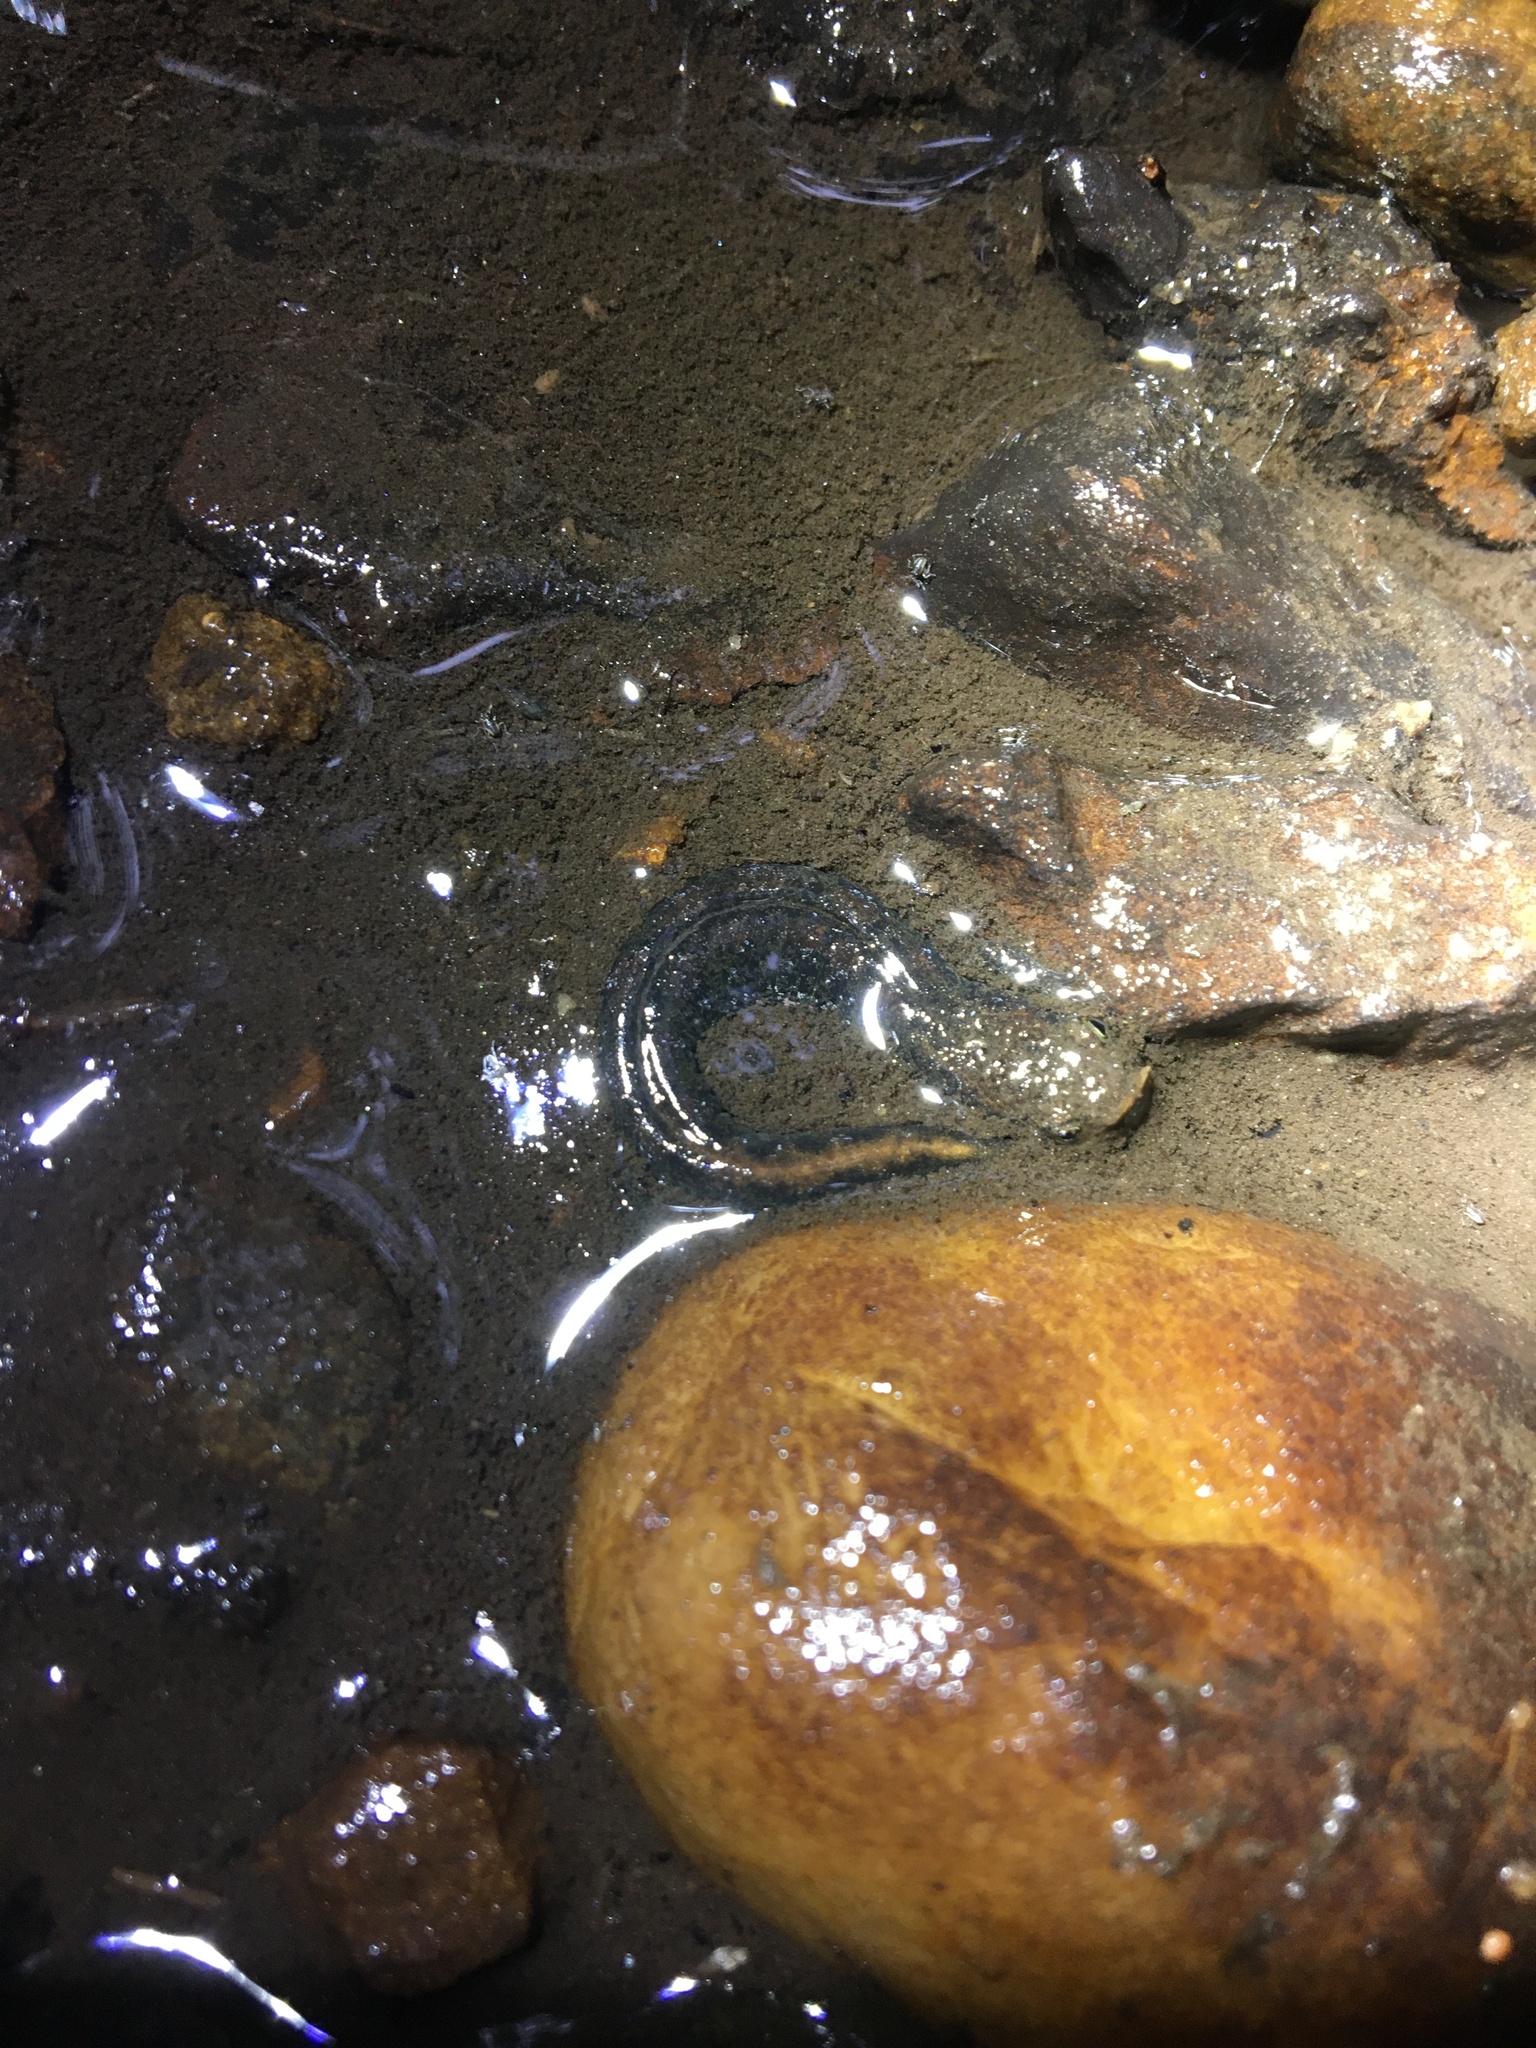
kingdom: Animalia
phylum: Chordata
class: Amphibia
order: Caudata
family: Plethodontidae
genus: Desmognathus
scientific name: Desmognathus fuscus
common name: Northern dusky salamander
